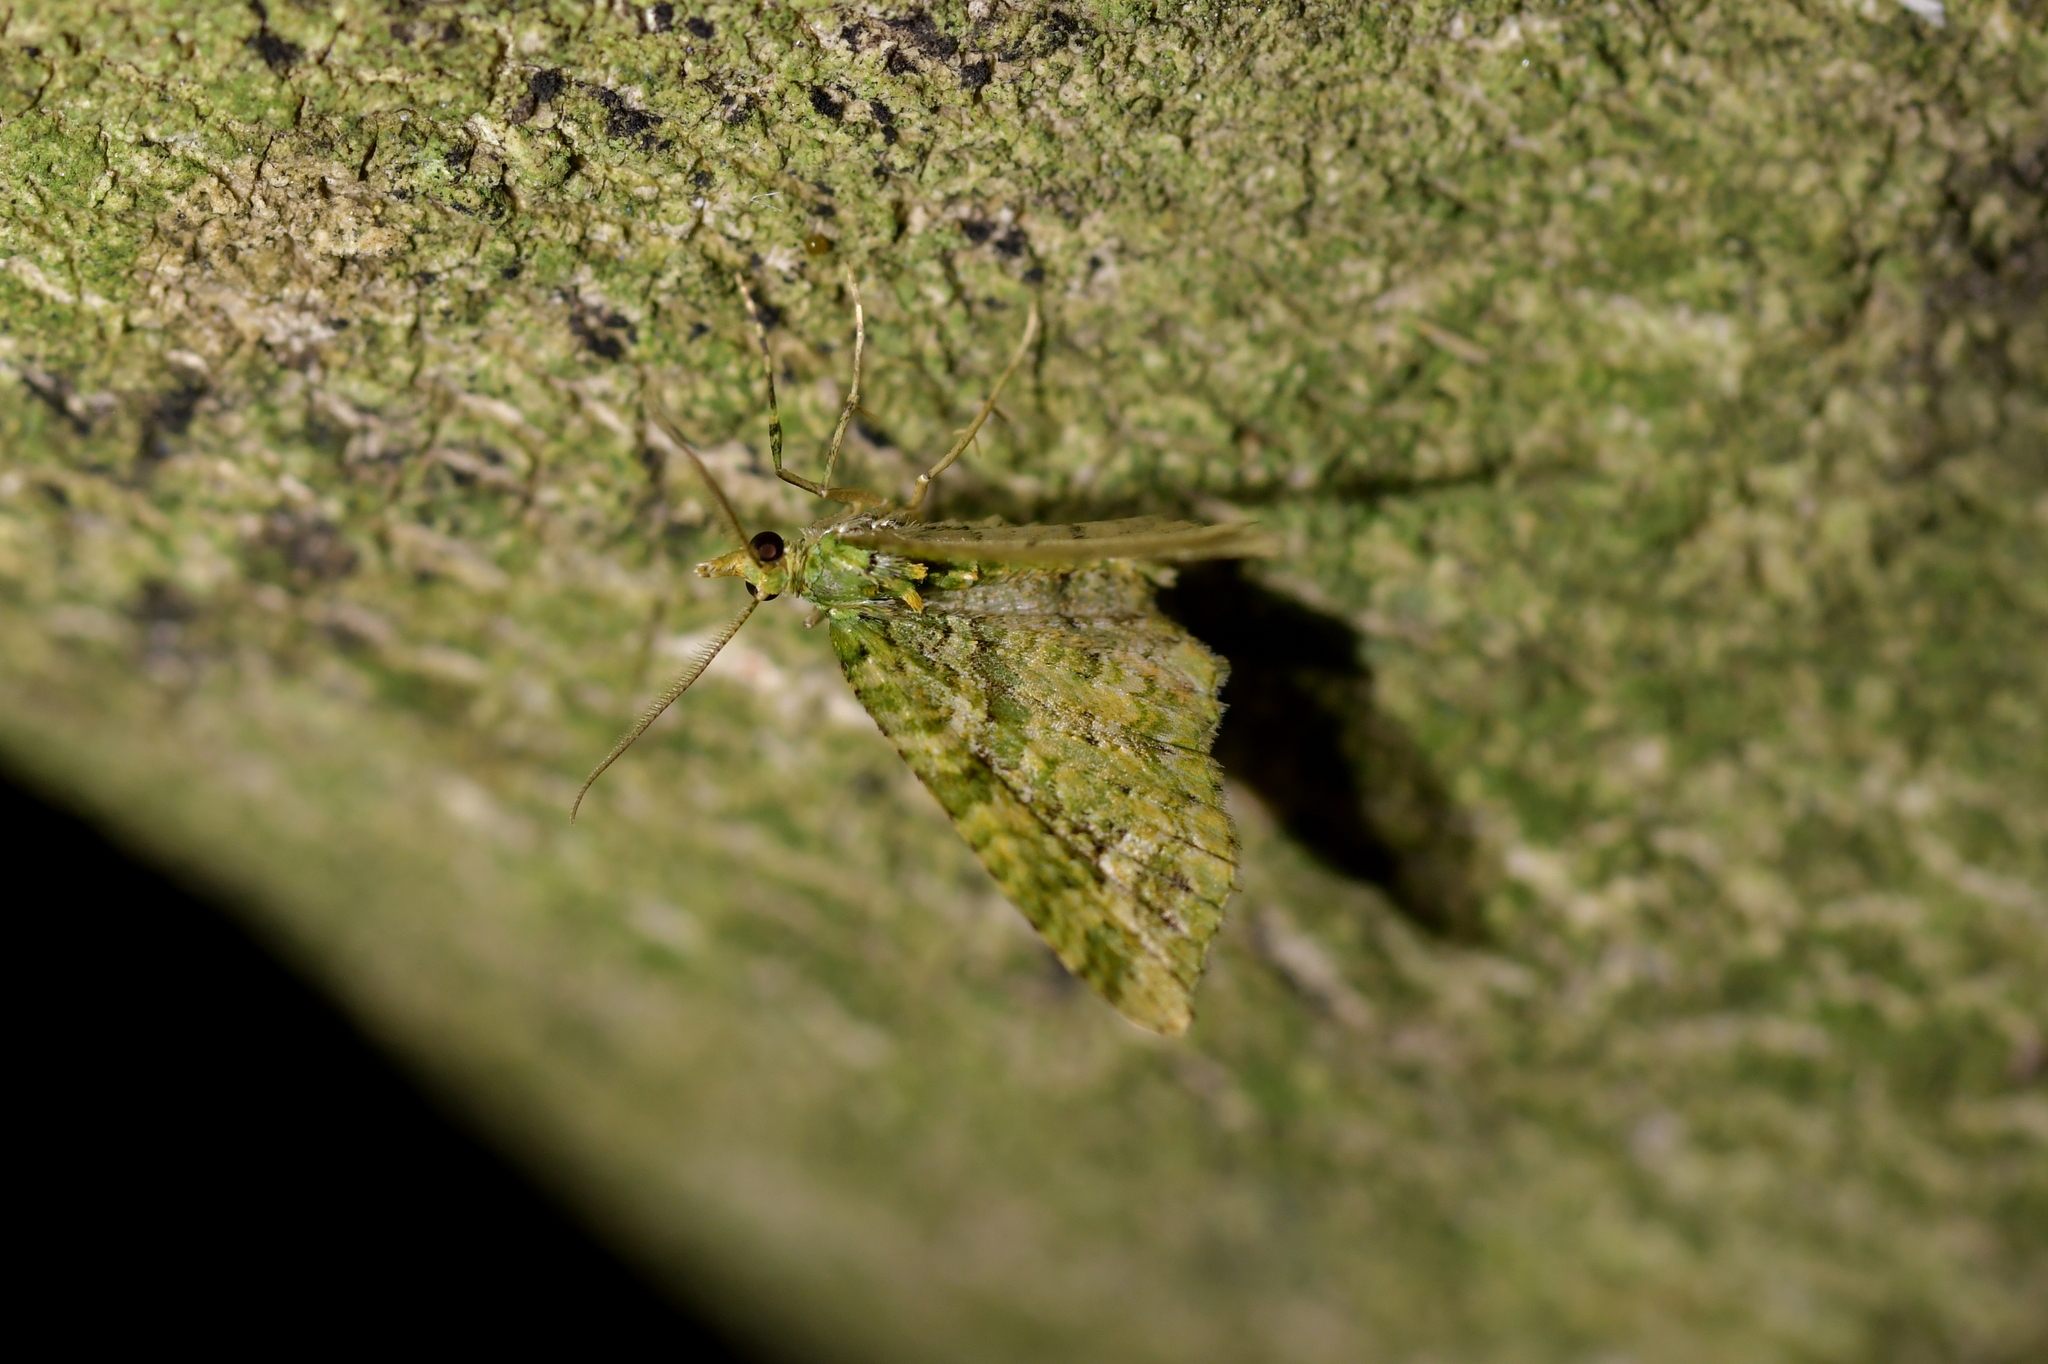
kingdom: Animalia
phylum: Arthropoda
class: Insecta
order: Lepidoptera
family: Geometridae
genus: Pasiphila
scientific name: Pasiphila muscosata
